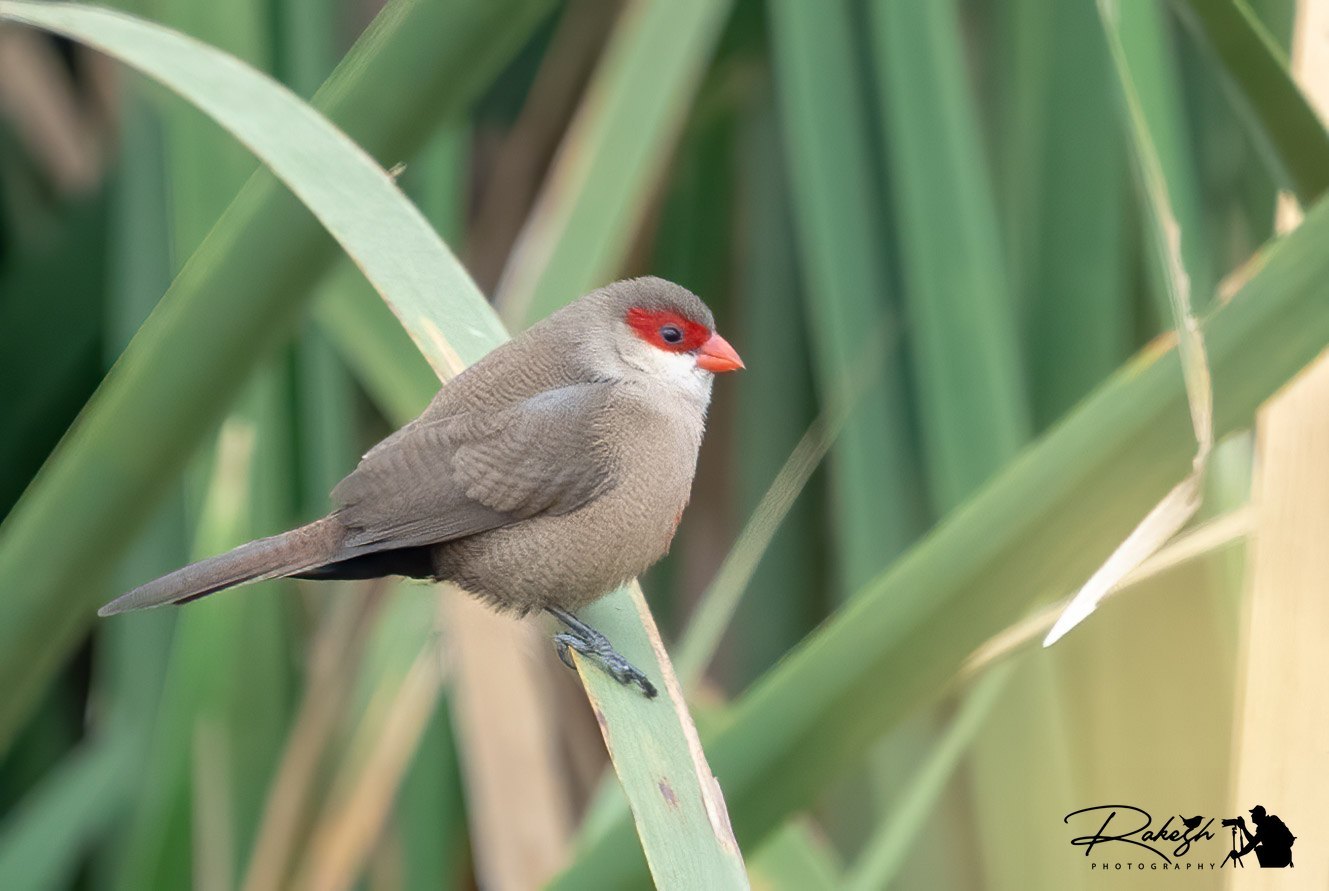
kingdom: Animalia
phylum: Chordata
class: Aves
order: Passeriformes
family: Estrildidae
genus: Estrilda
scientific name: Estrilda astrild
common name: Common waxbill
